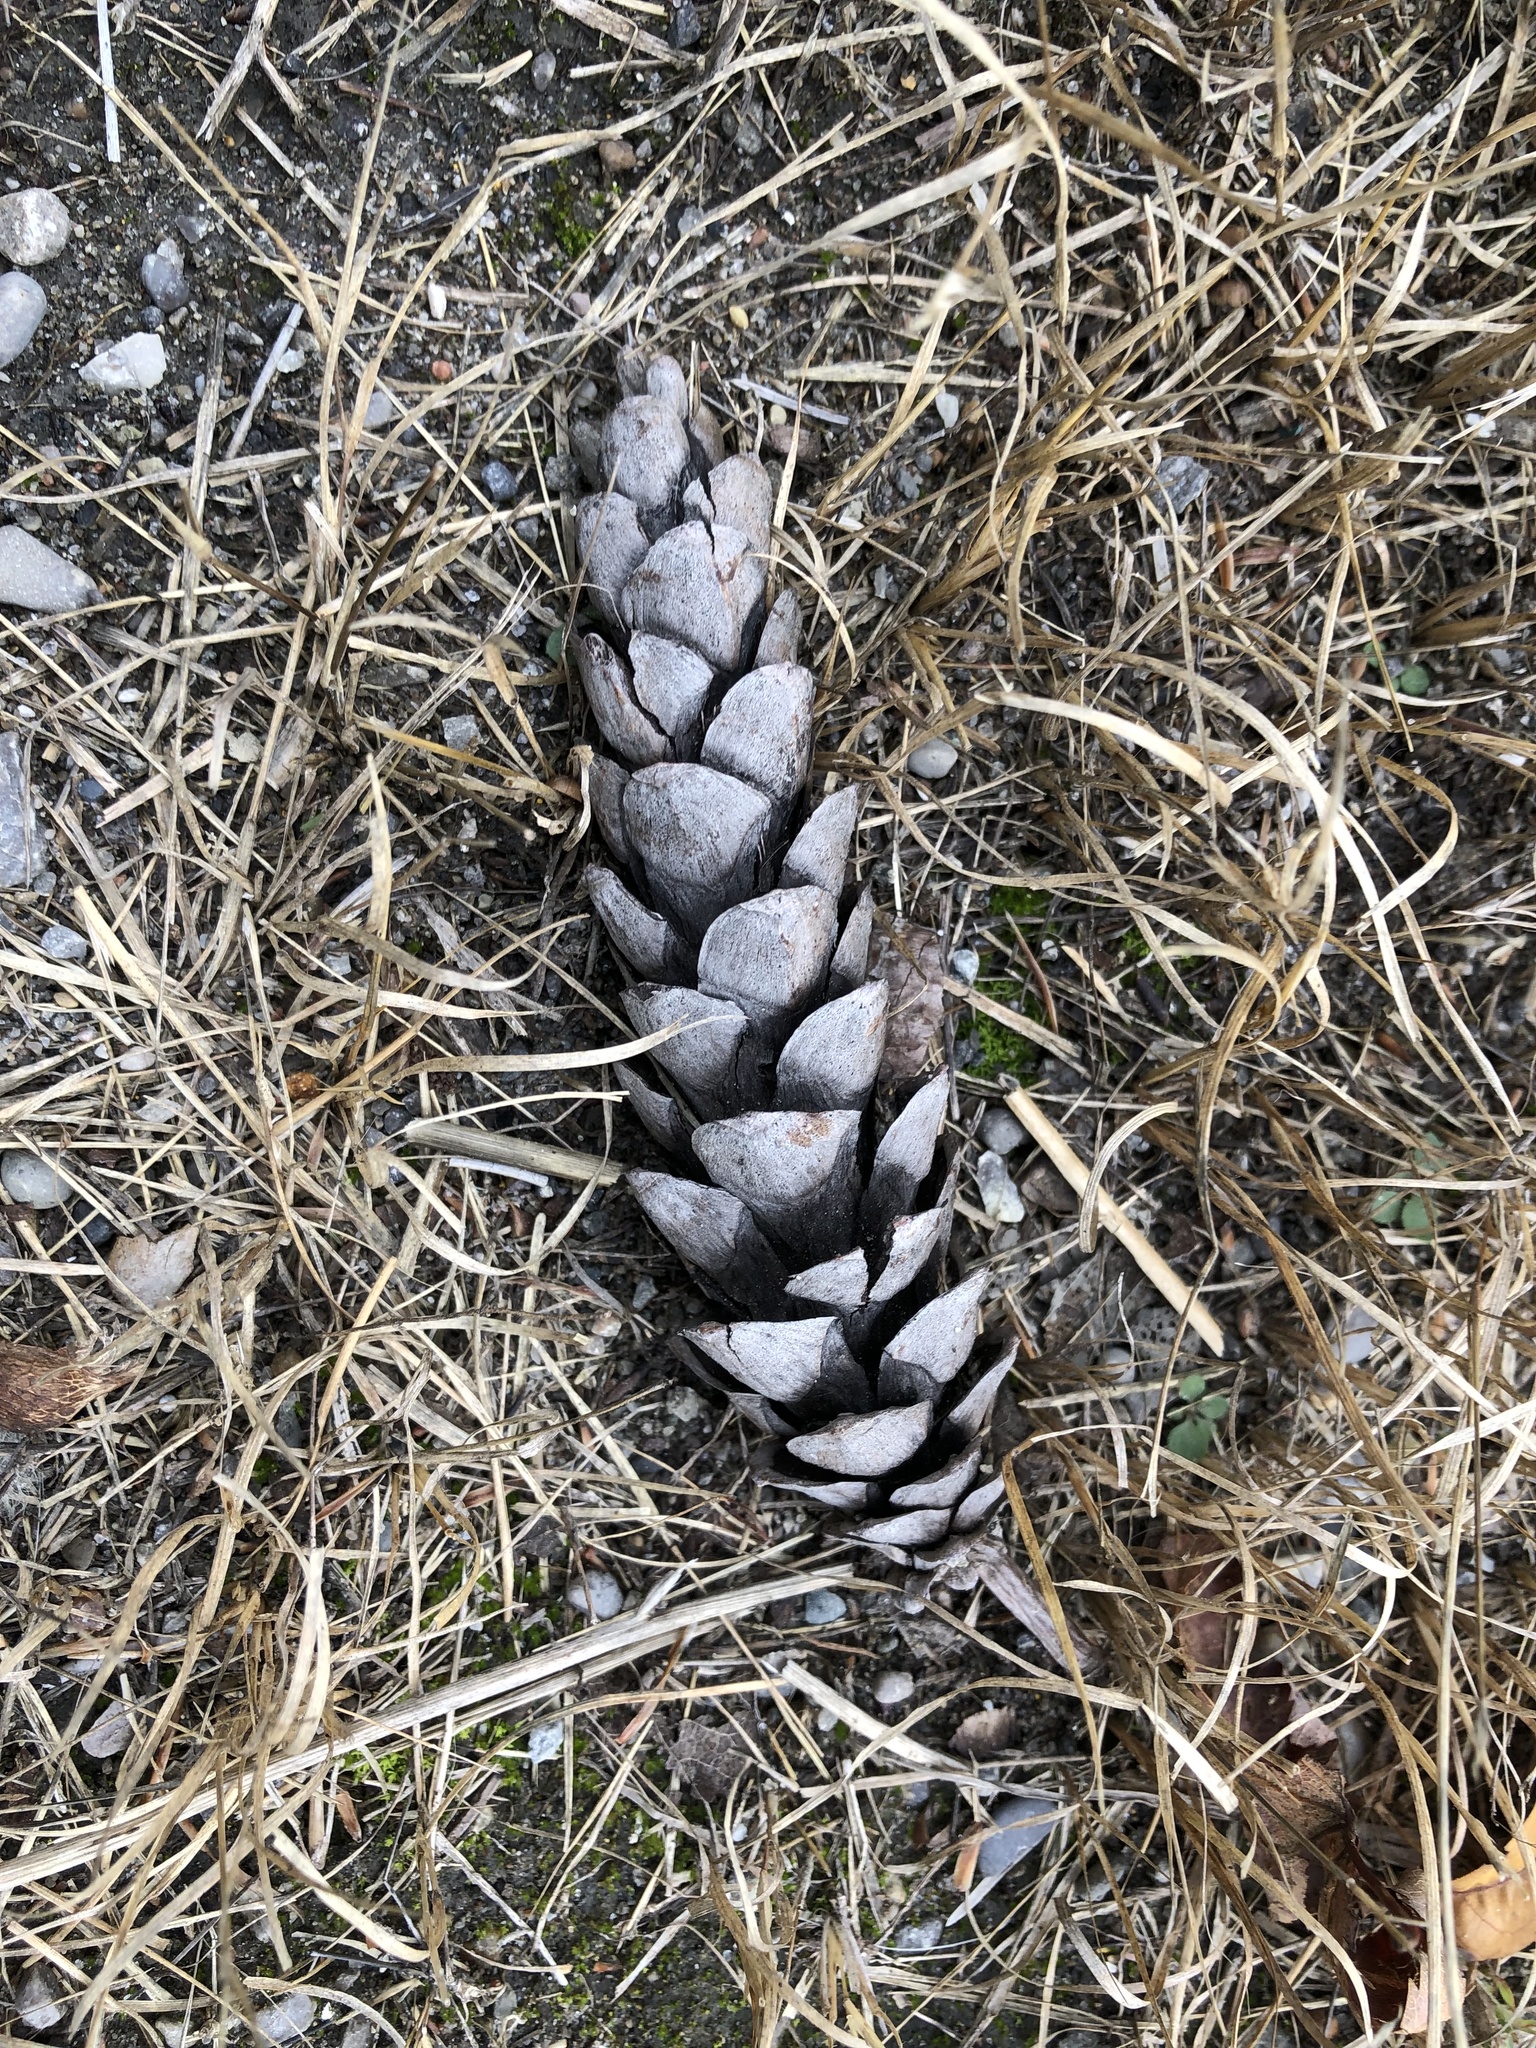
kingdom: Plantae
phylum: Tracheophyta
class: Pinopsida
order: Pinales
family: Pinaceae
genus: Pinus
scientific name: Pinus strobus
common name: Weymouth pine
